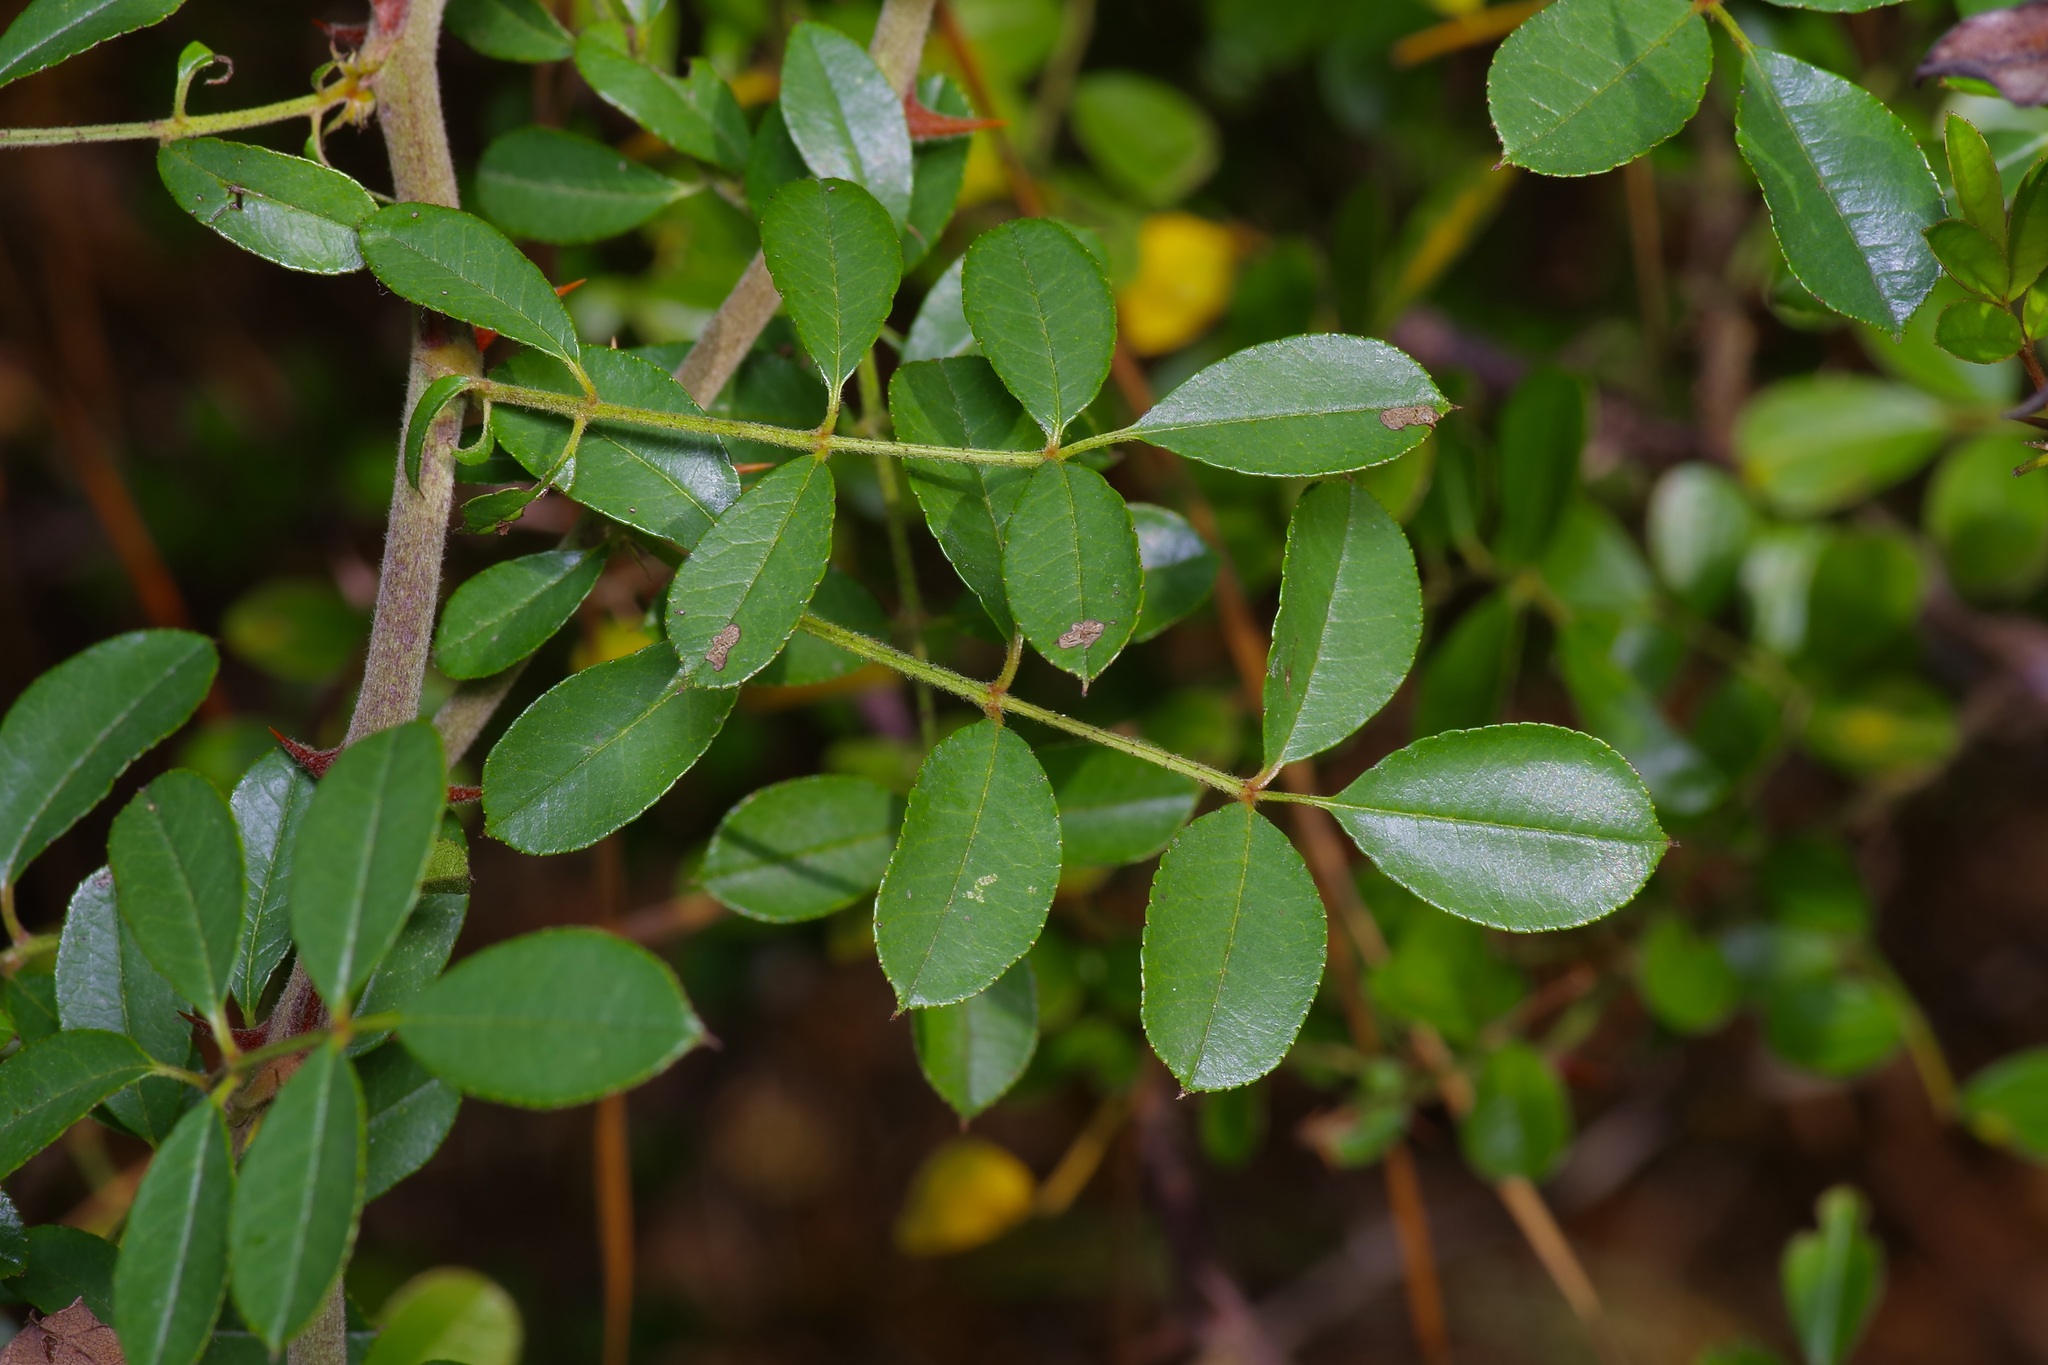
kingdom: Plantae
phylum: Tracheophyta
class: Magnoliopsida
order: Rosales
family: Rosaceae
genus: Rosa
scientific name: Rosa bracteata
